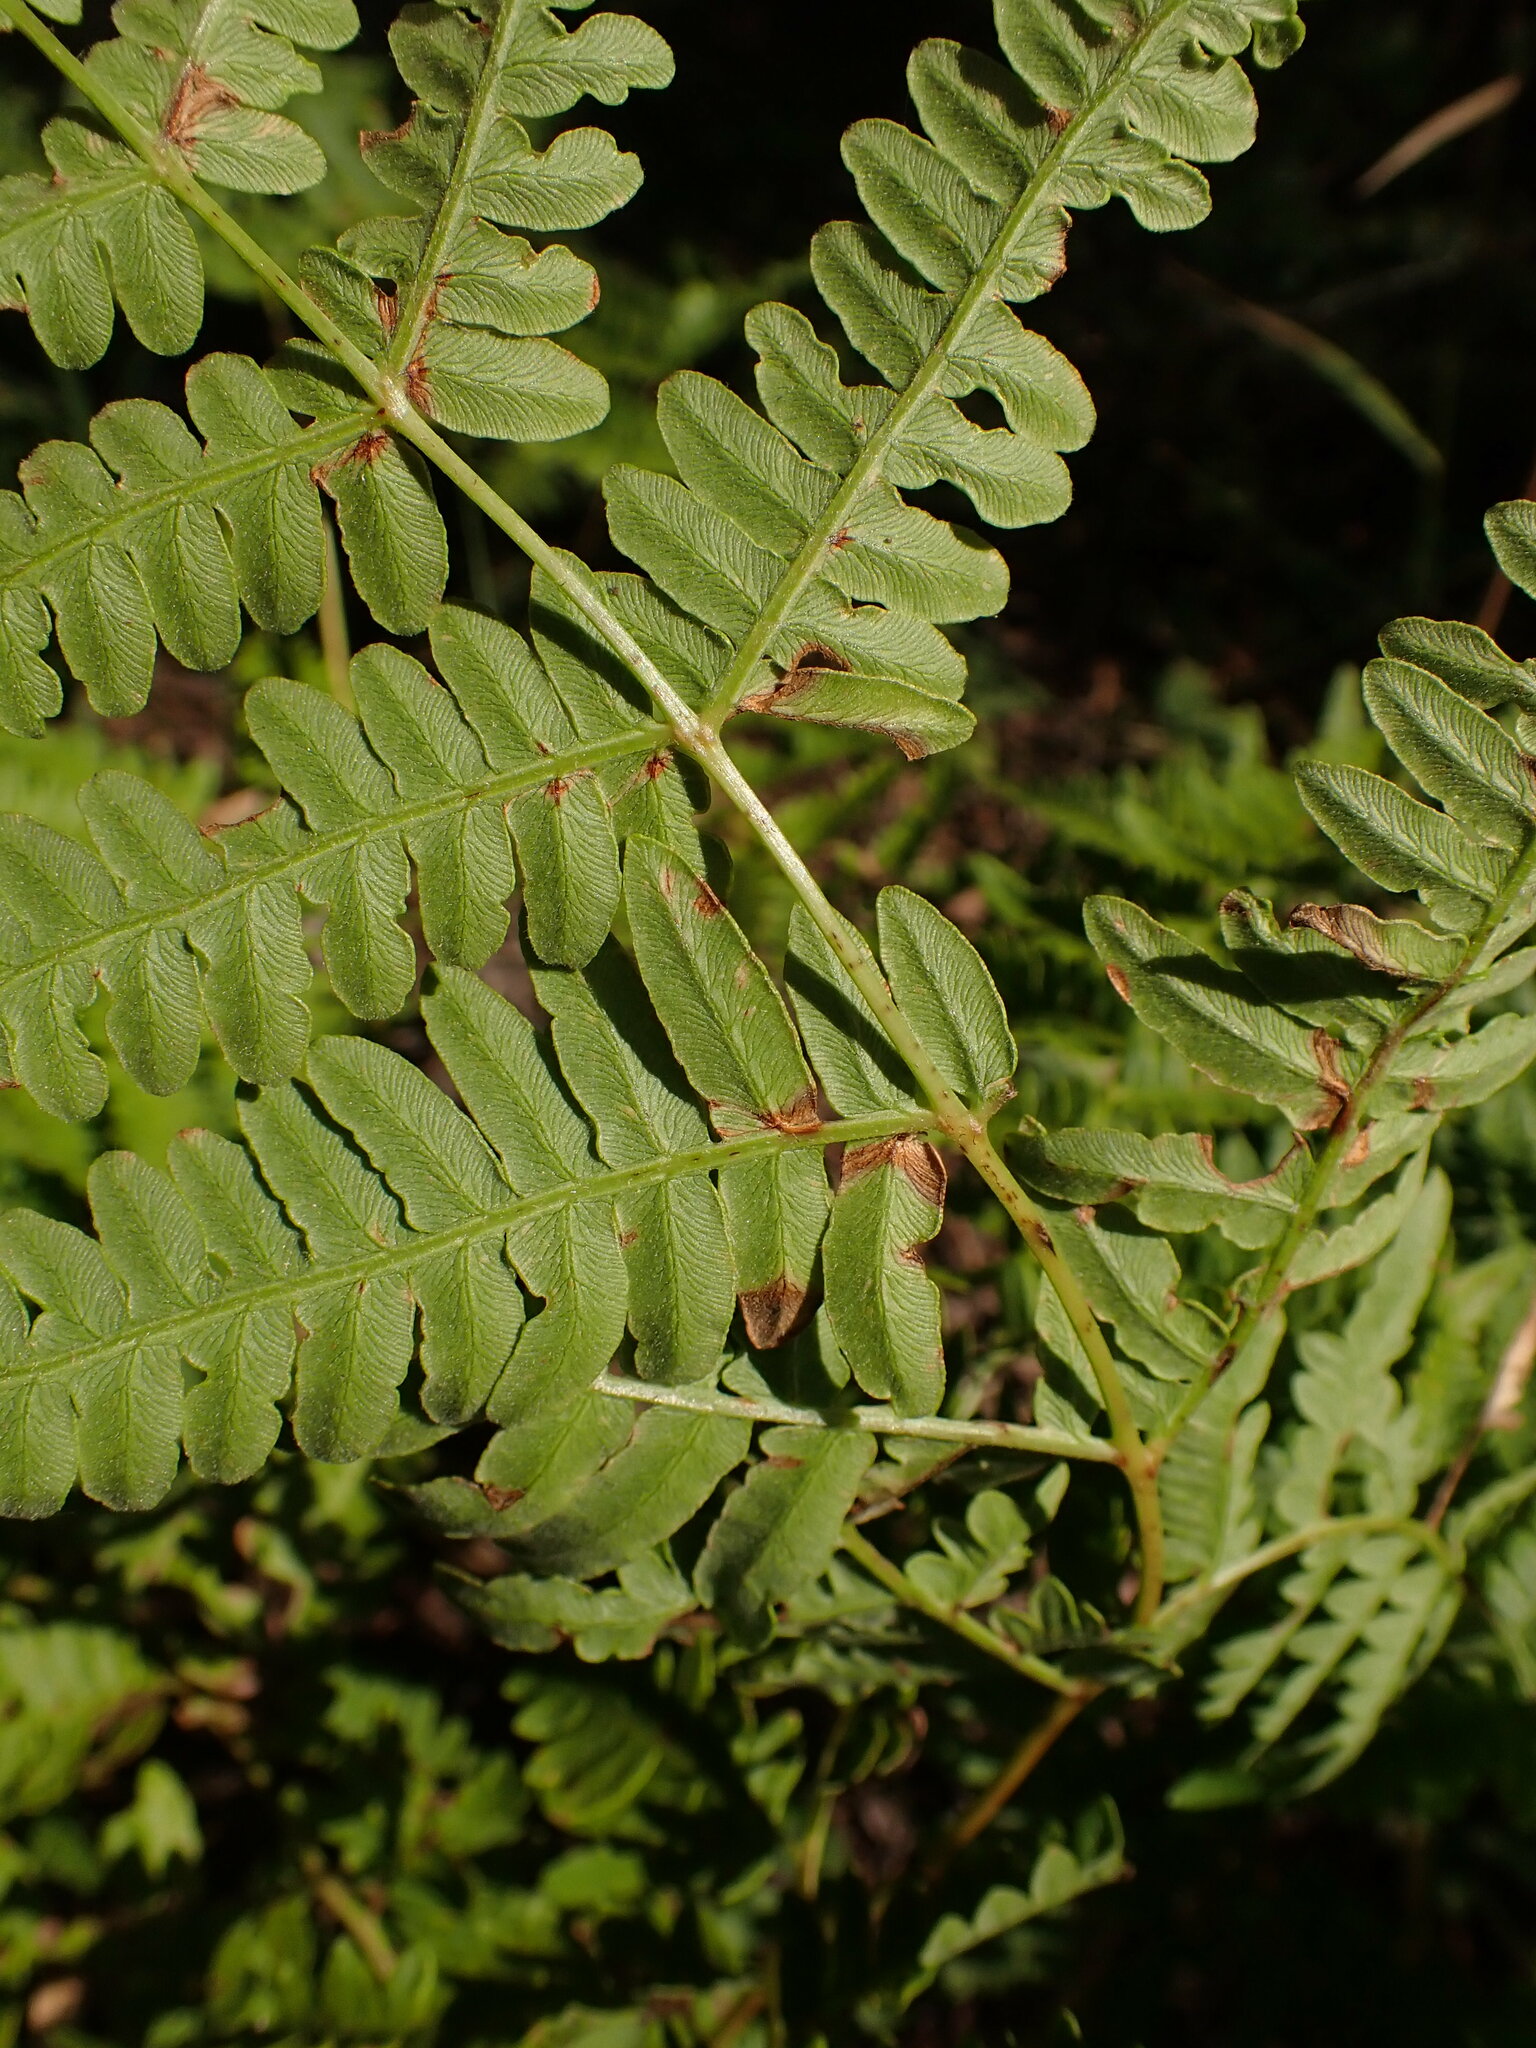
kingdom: Plantae
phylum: Tracheophyta
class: Polypodiopsida
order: Polypodiales
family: Dennstaedtiaceae
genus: Pteridium
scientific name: Pteridium aquilinum
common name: Bracken
